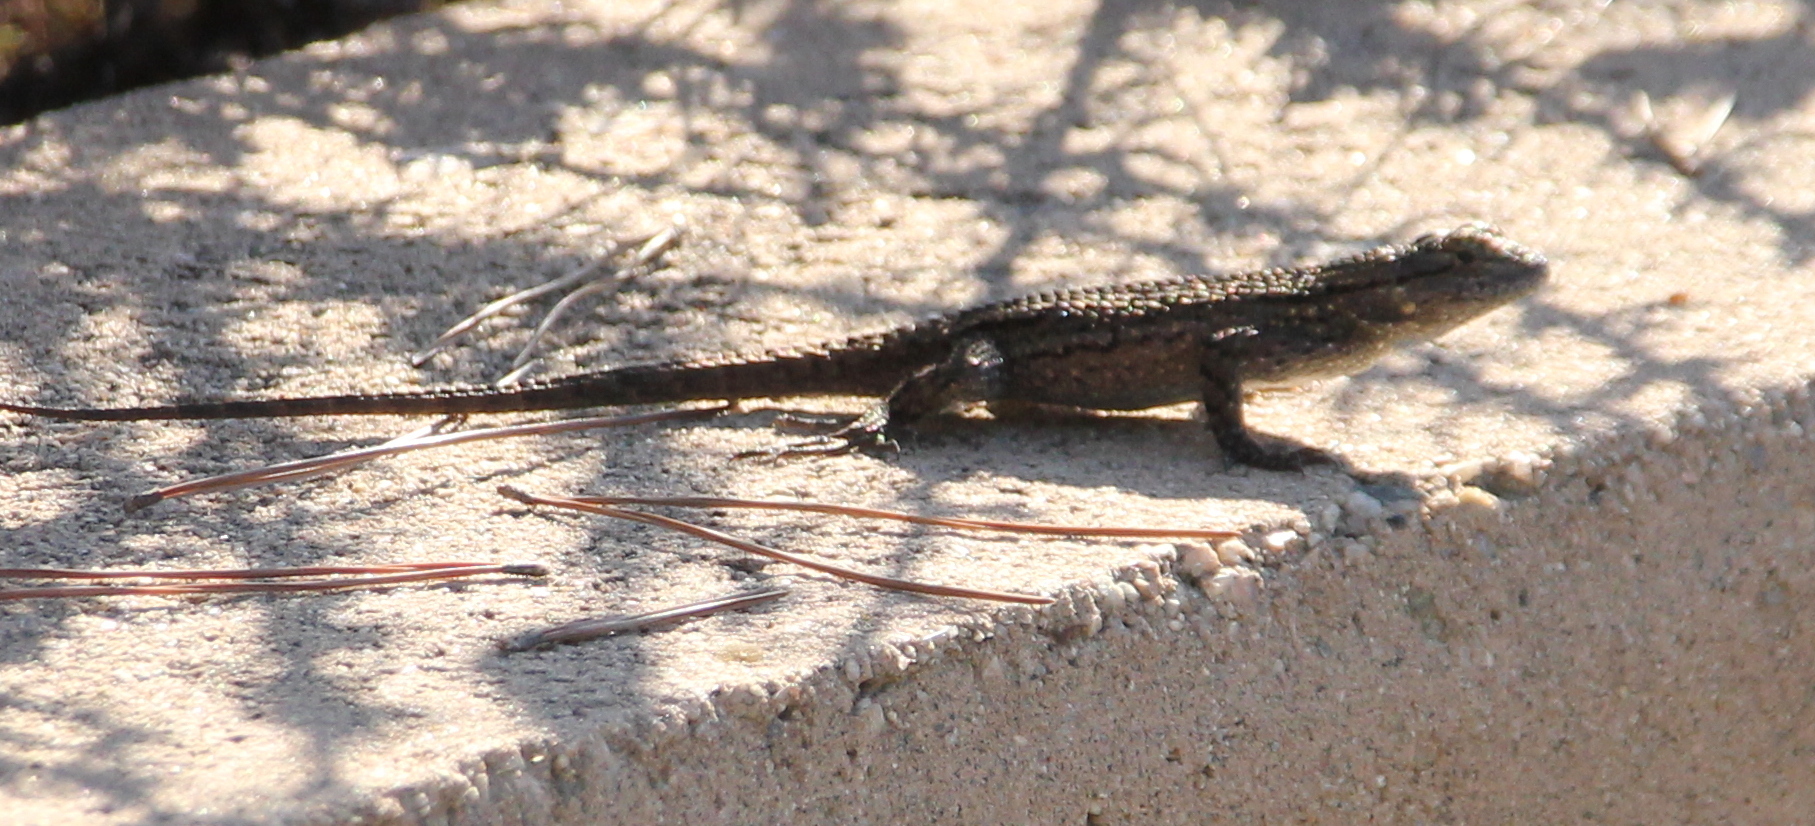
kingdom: Animalia
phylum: Chordata
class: Squamata
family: Phrynosomatidae
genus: Sceloporus
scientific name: Sceloporus occidentalis
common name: Western fence lizard
